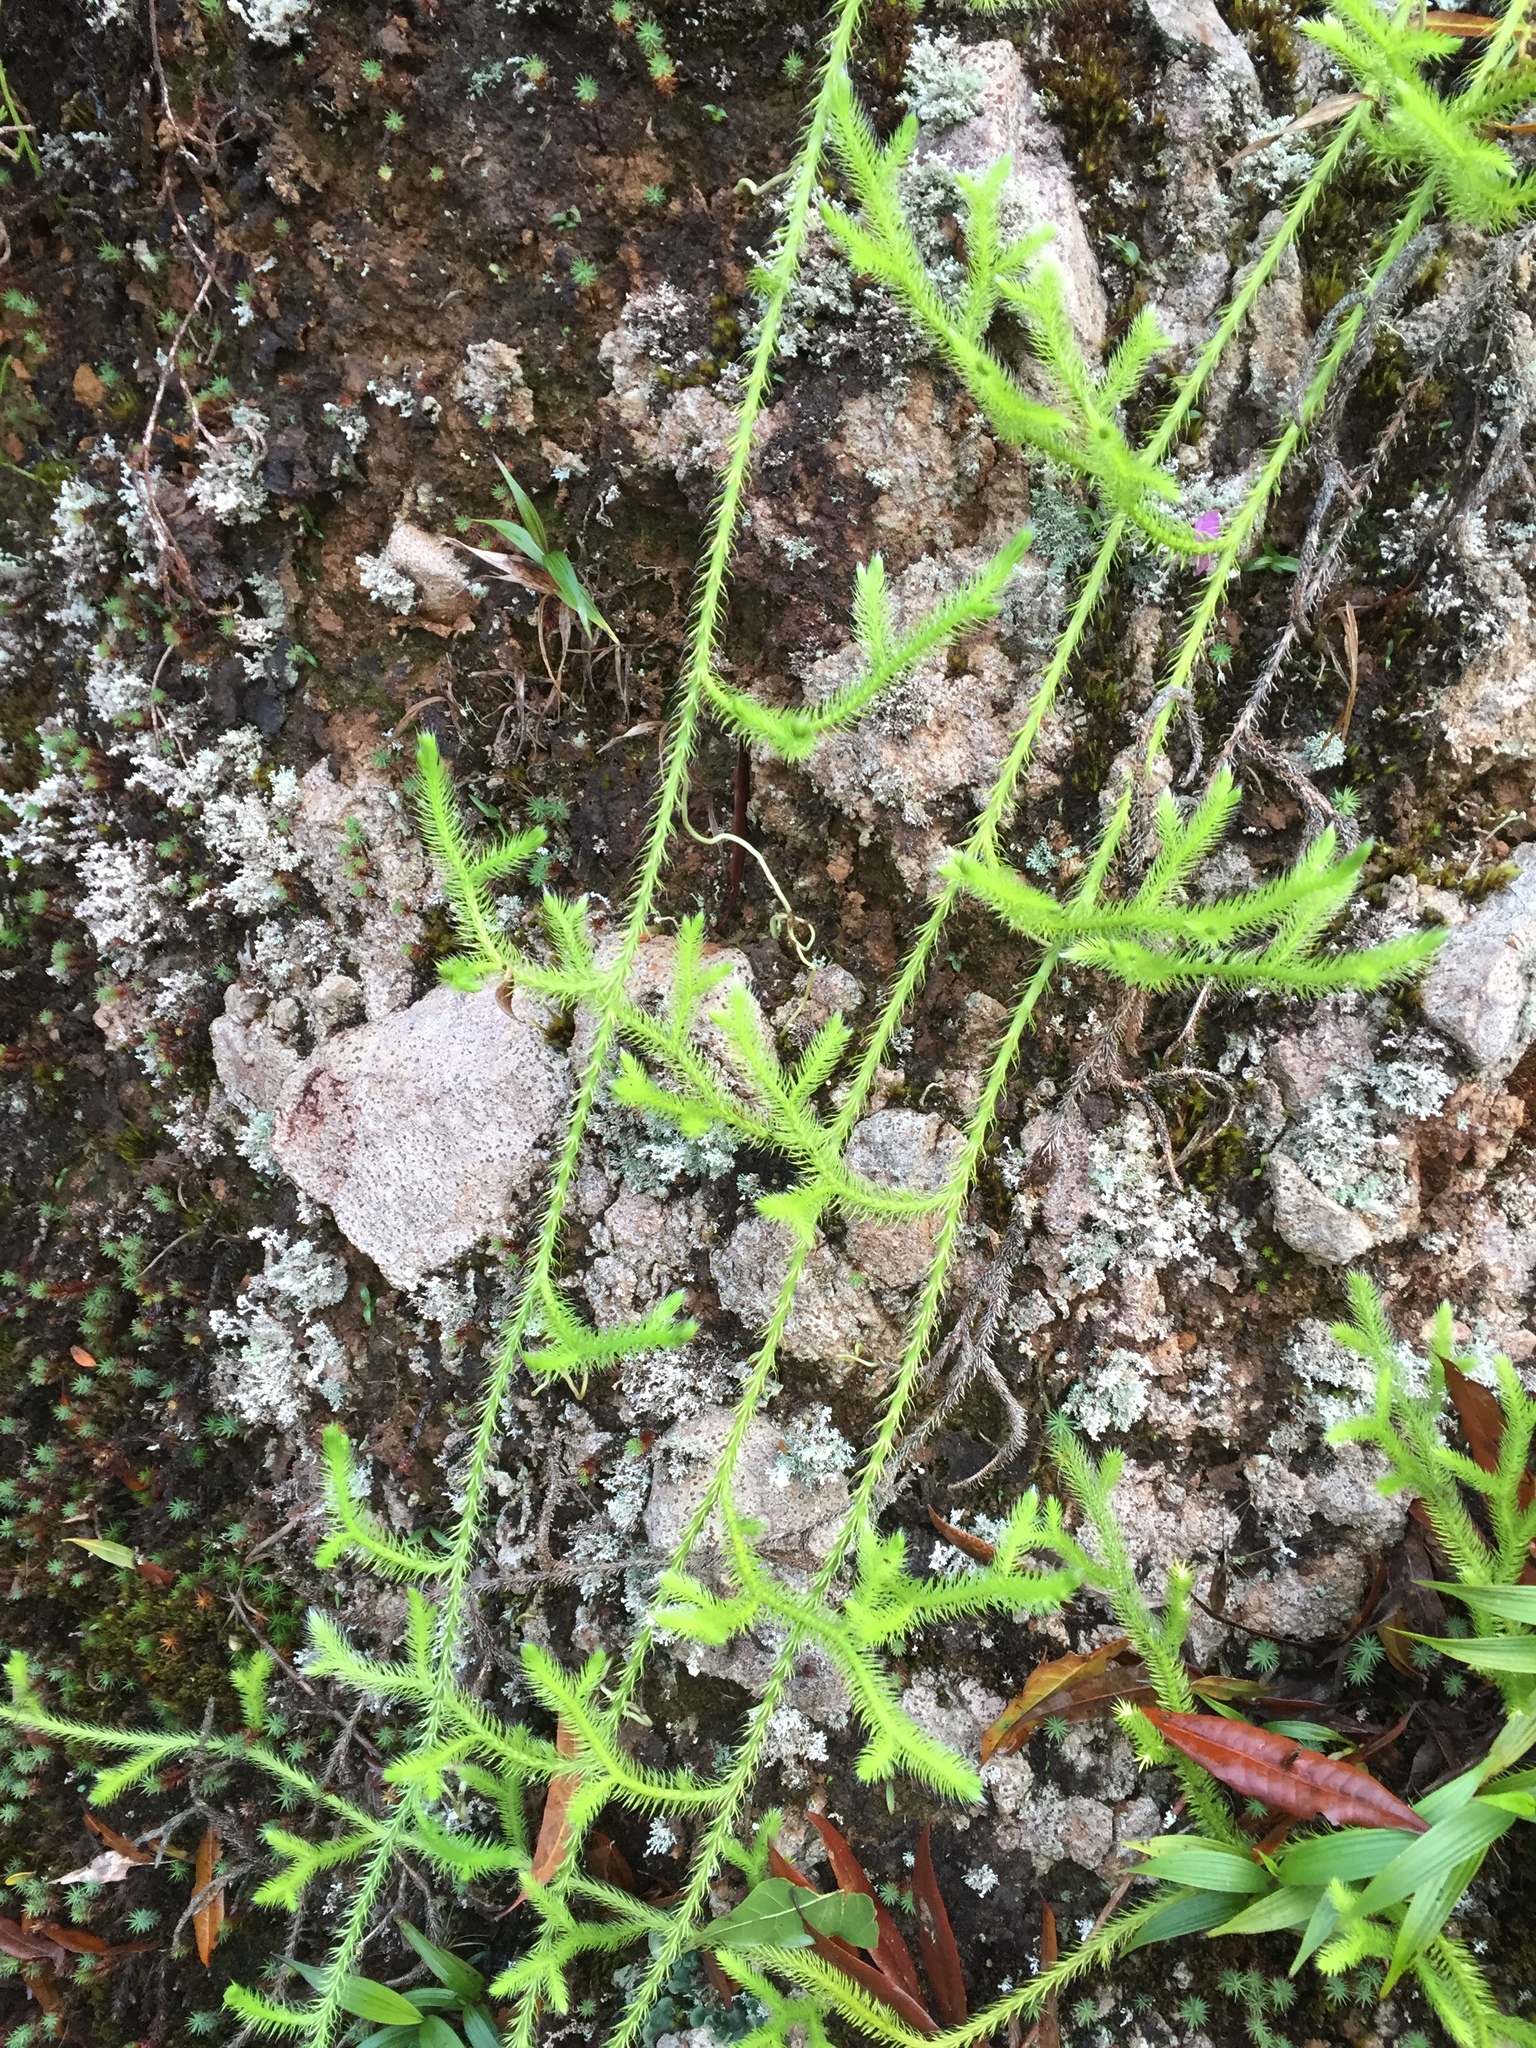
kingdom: Plantae
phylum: Tracheophyta
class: Lycopodiopsida
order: Lycopodiales
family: Lycopodiaceae
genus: Lycopodium
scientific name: Lycopodium clavatum
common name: Stag's-horn clubmoss
